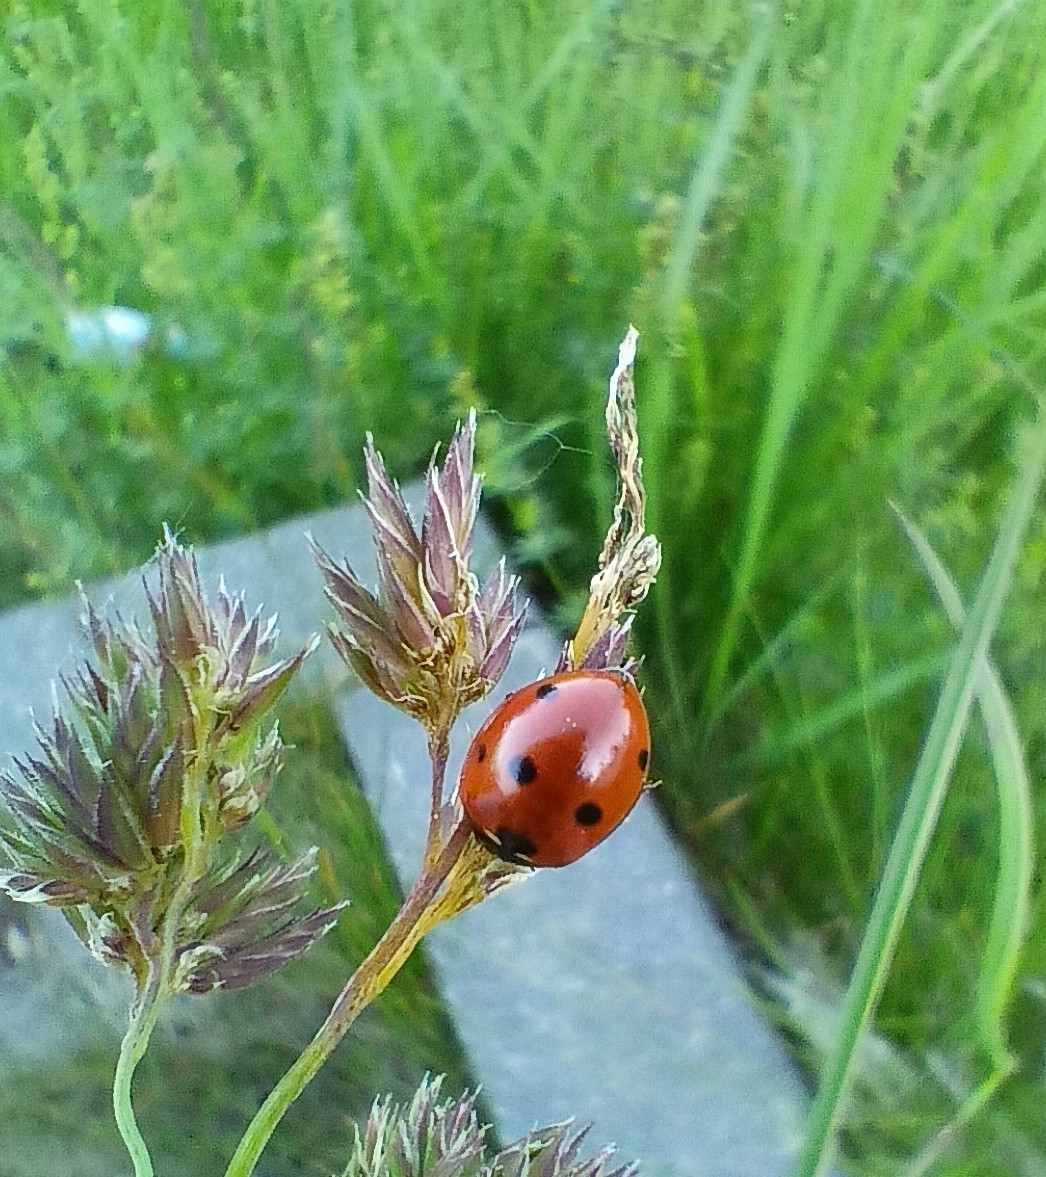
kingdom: Animalia
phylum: Arthropoda
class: Insecta
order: Coleoptera
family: Coccinellidae
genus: Coccinella
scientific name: Coccinella septempunctata
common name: Sevenspotted lady beetle
